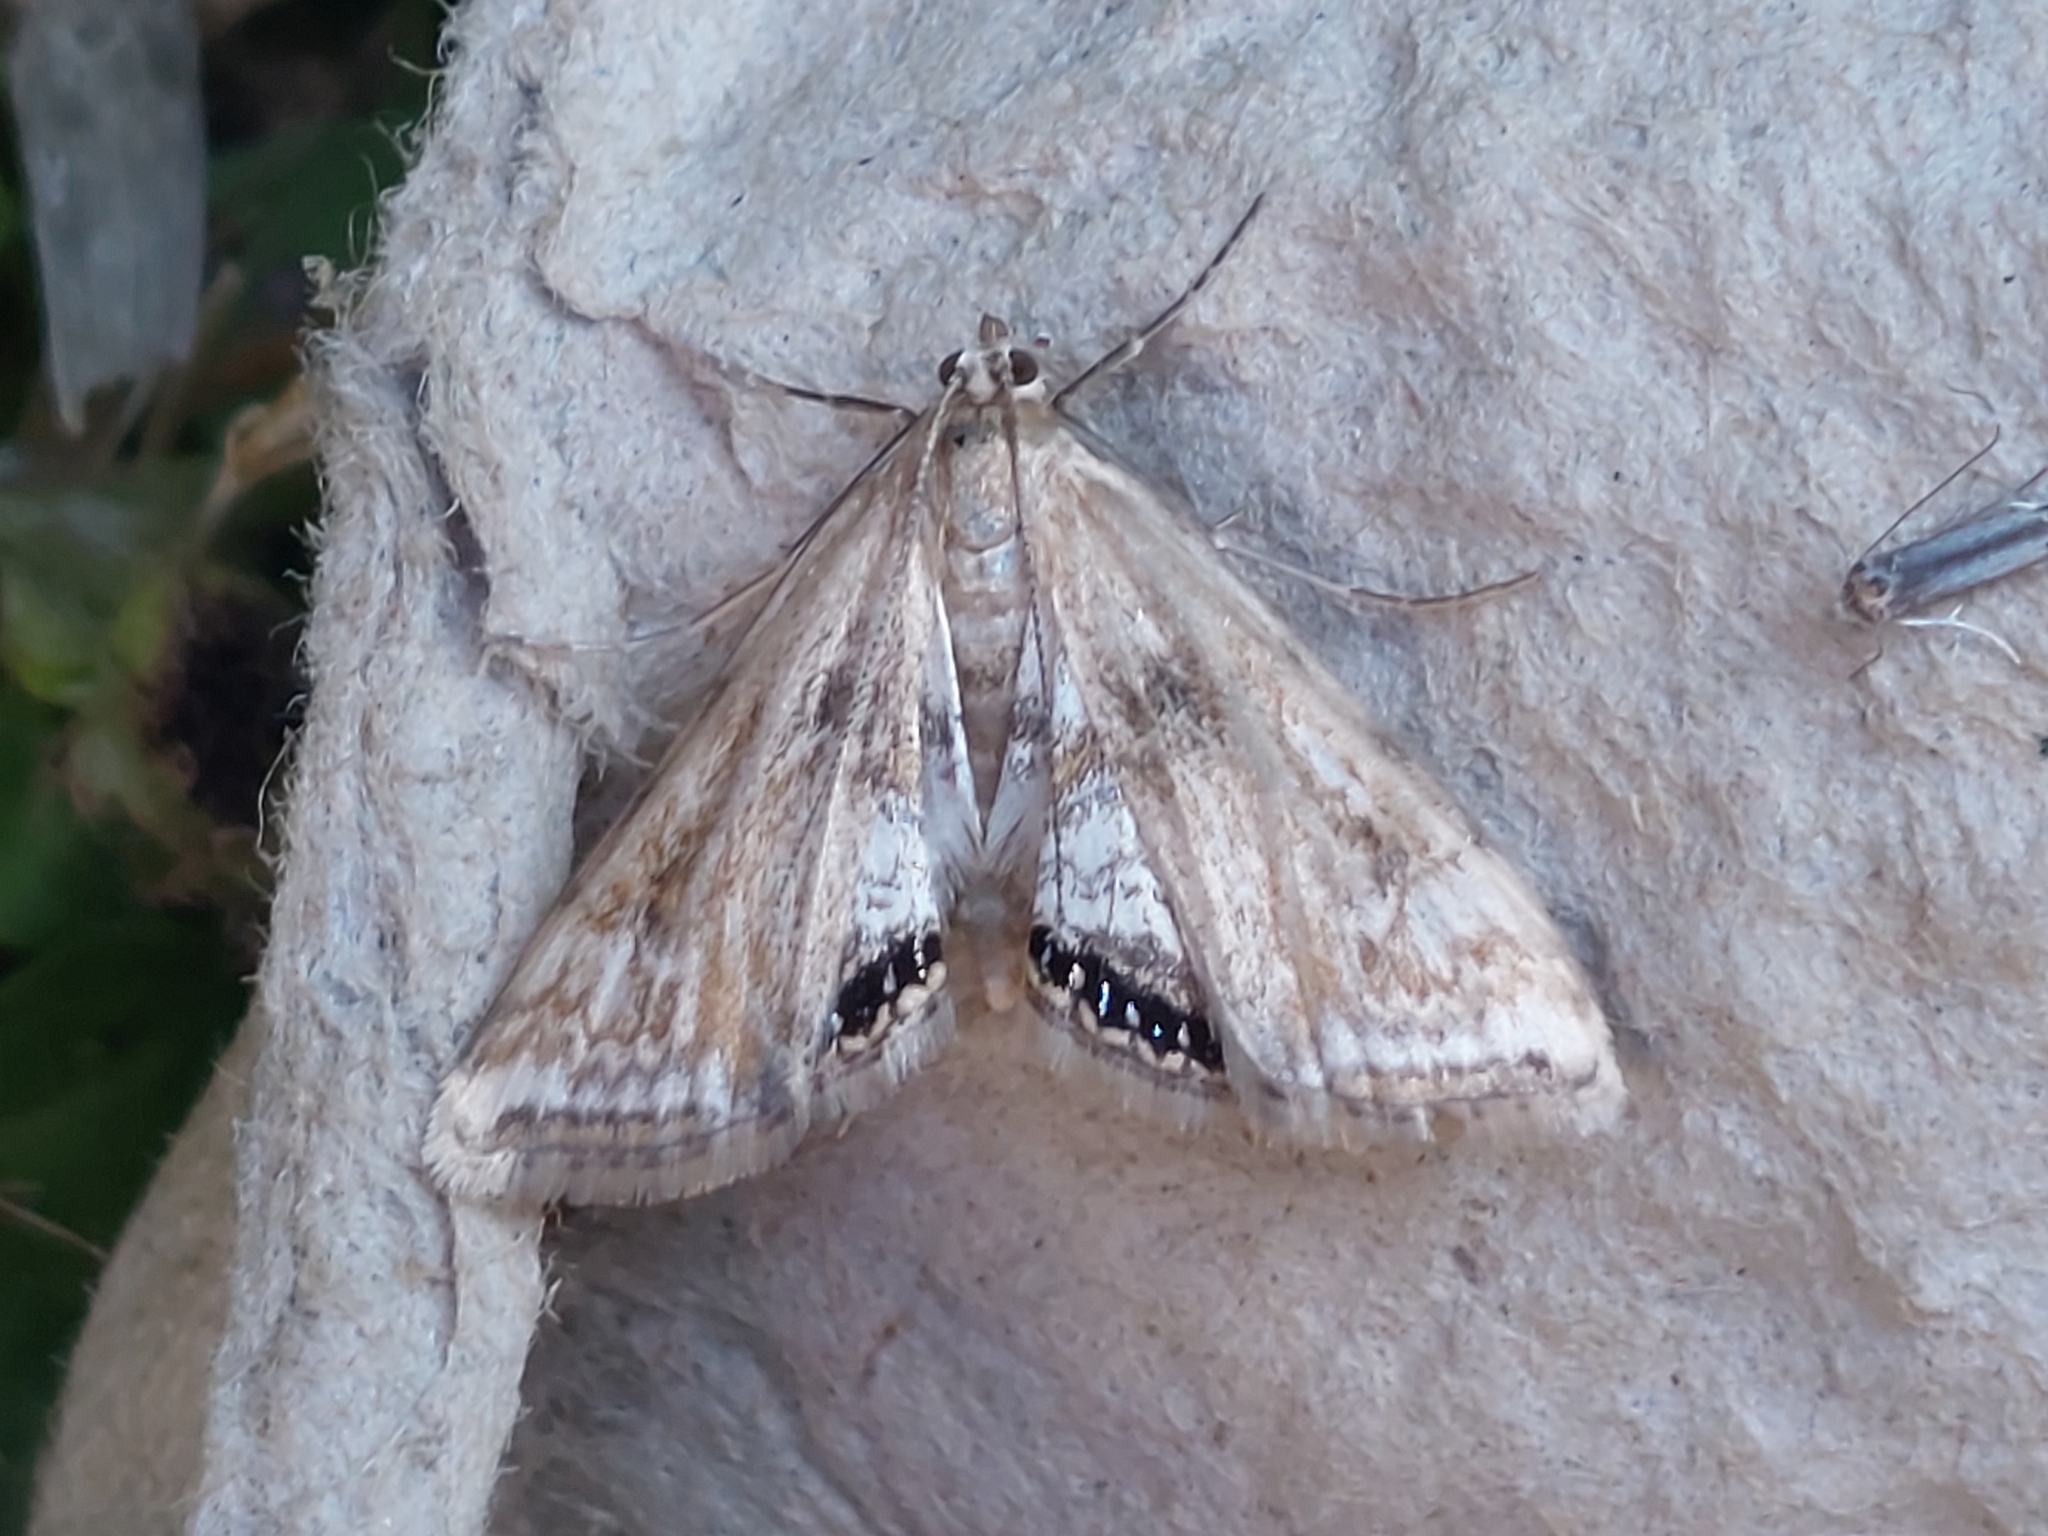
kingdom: Animalia
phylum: Arthropoda
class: Insecta
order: Lepidoptera
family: Crambidae
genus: Cataclysta
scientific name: Cataclysta lemnata
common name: Small china-mark
